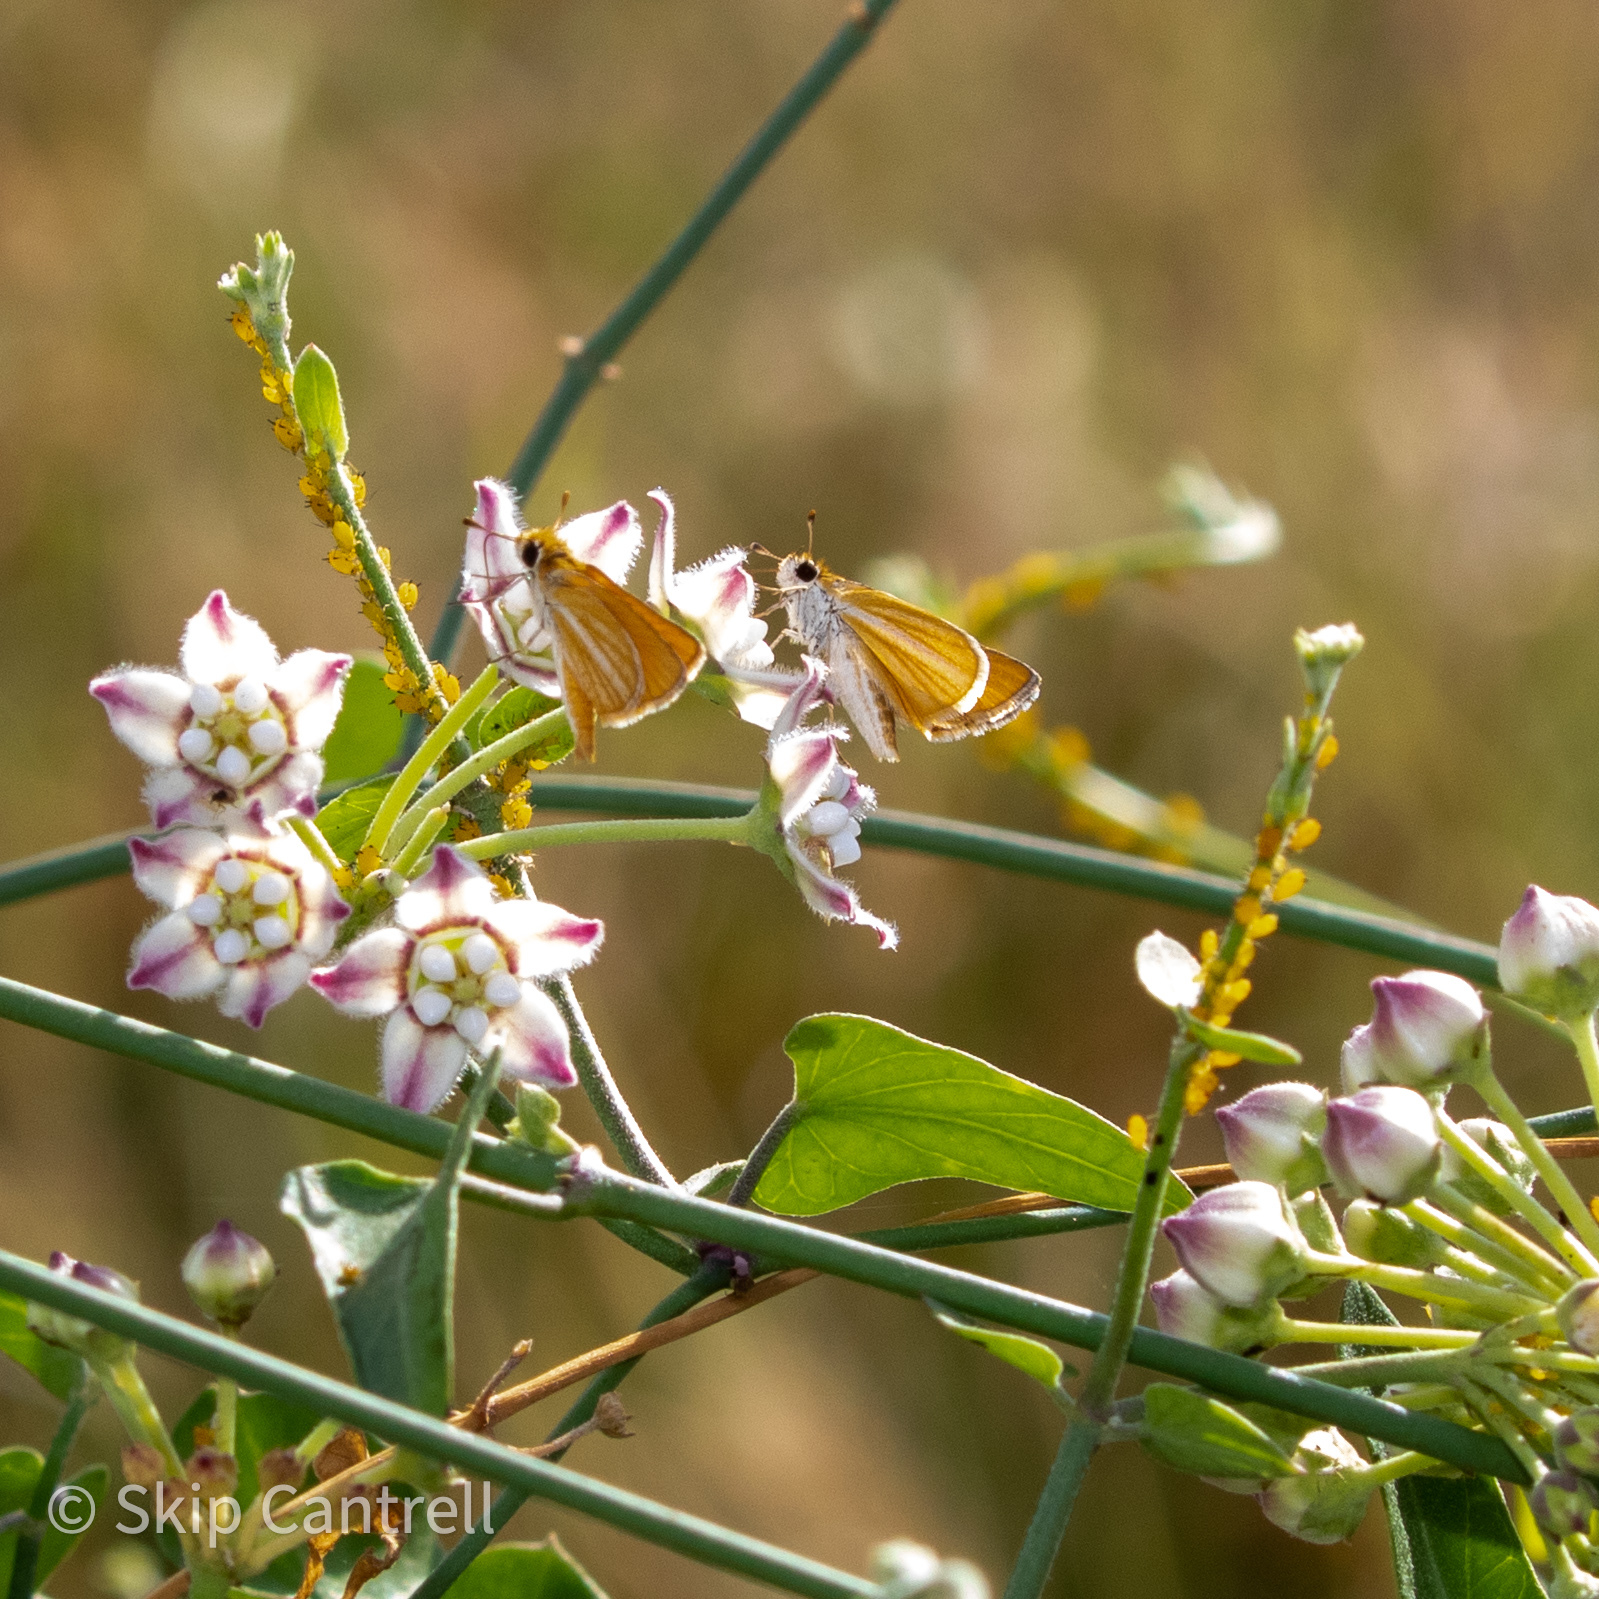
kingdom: Animalia
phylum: Arthropoda
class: Insecta
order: Lepidoptera
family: Hesperiidae
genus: Copaeodes
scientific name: Copaeodes minima
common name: Southern skipperling
